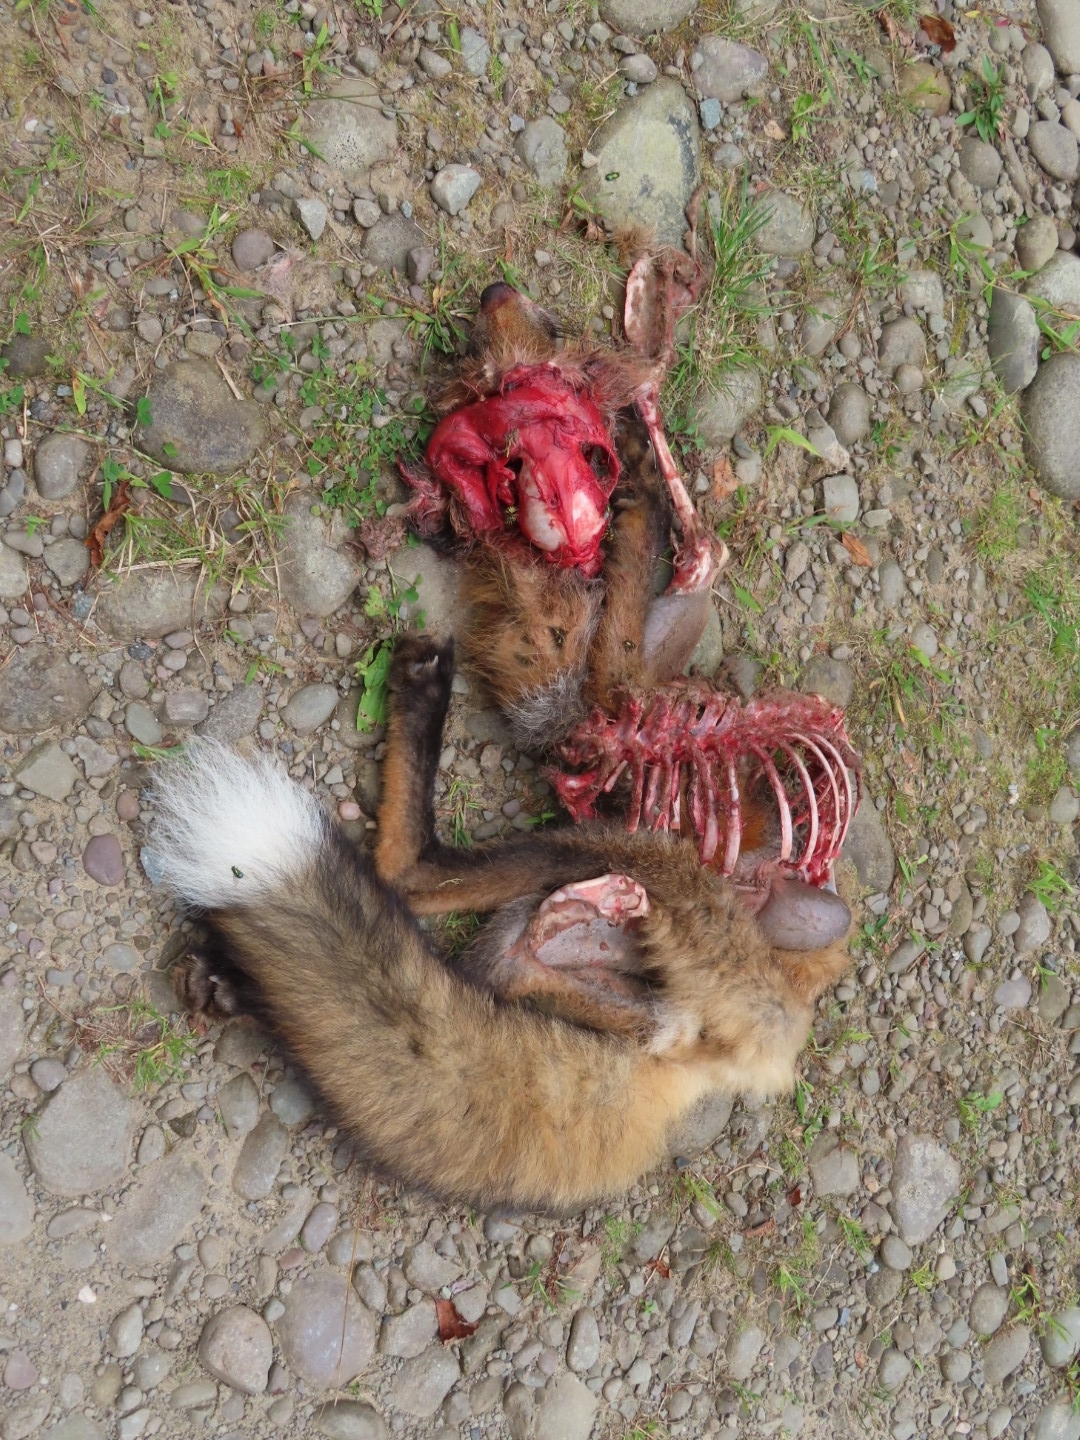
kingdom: Animalia
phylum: Chordata
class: Mammalia
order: Carnivora
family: Canidae
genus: Vulpes
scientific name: Vulpes vulpes
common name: Red fox
